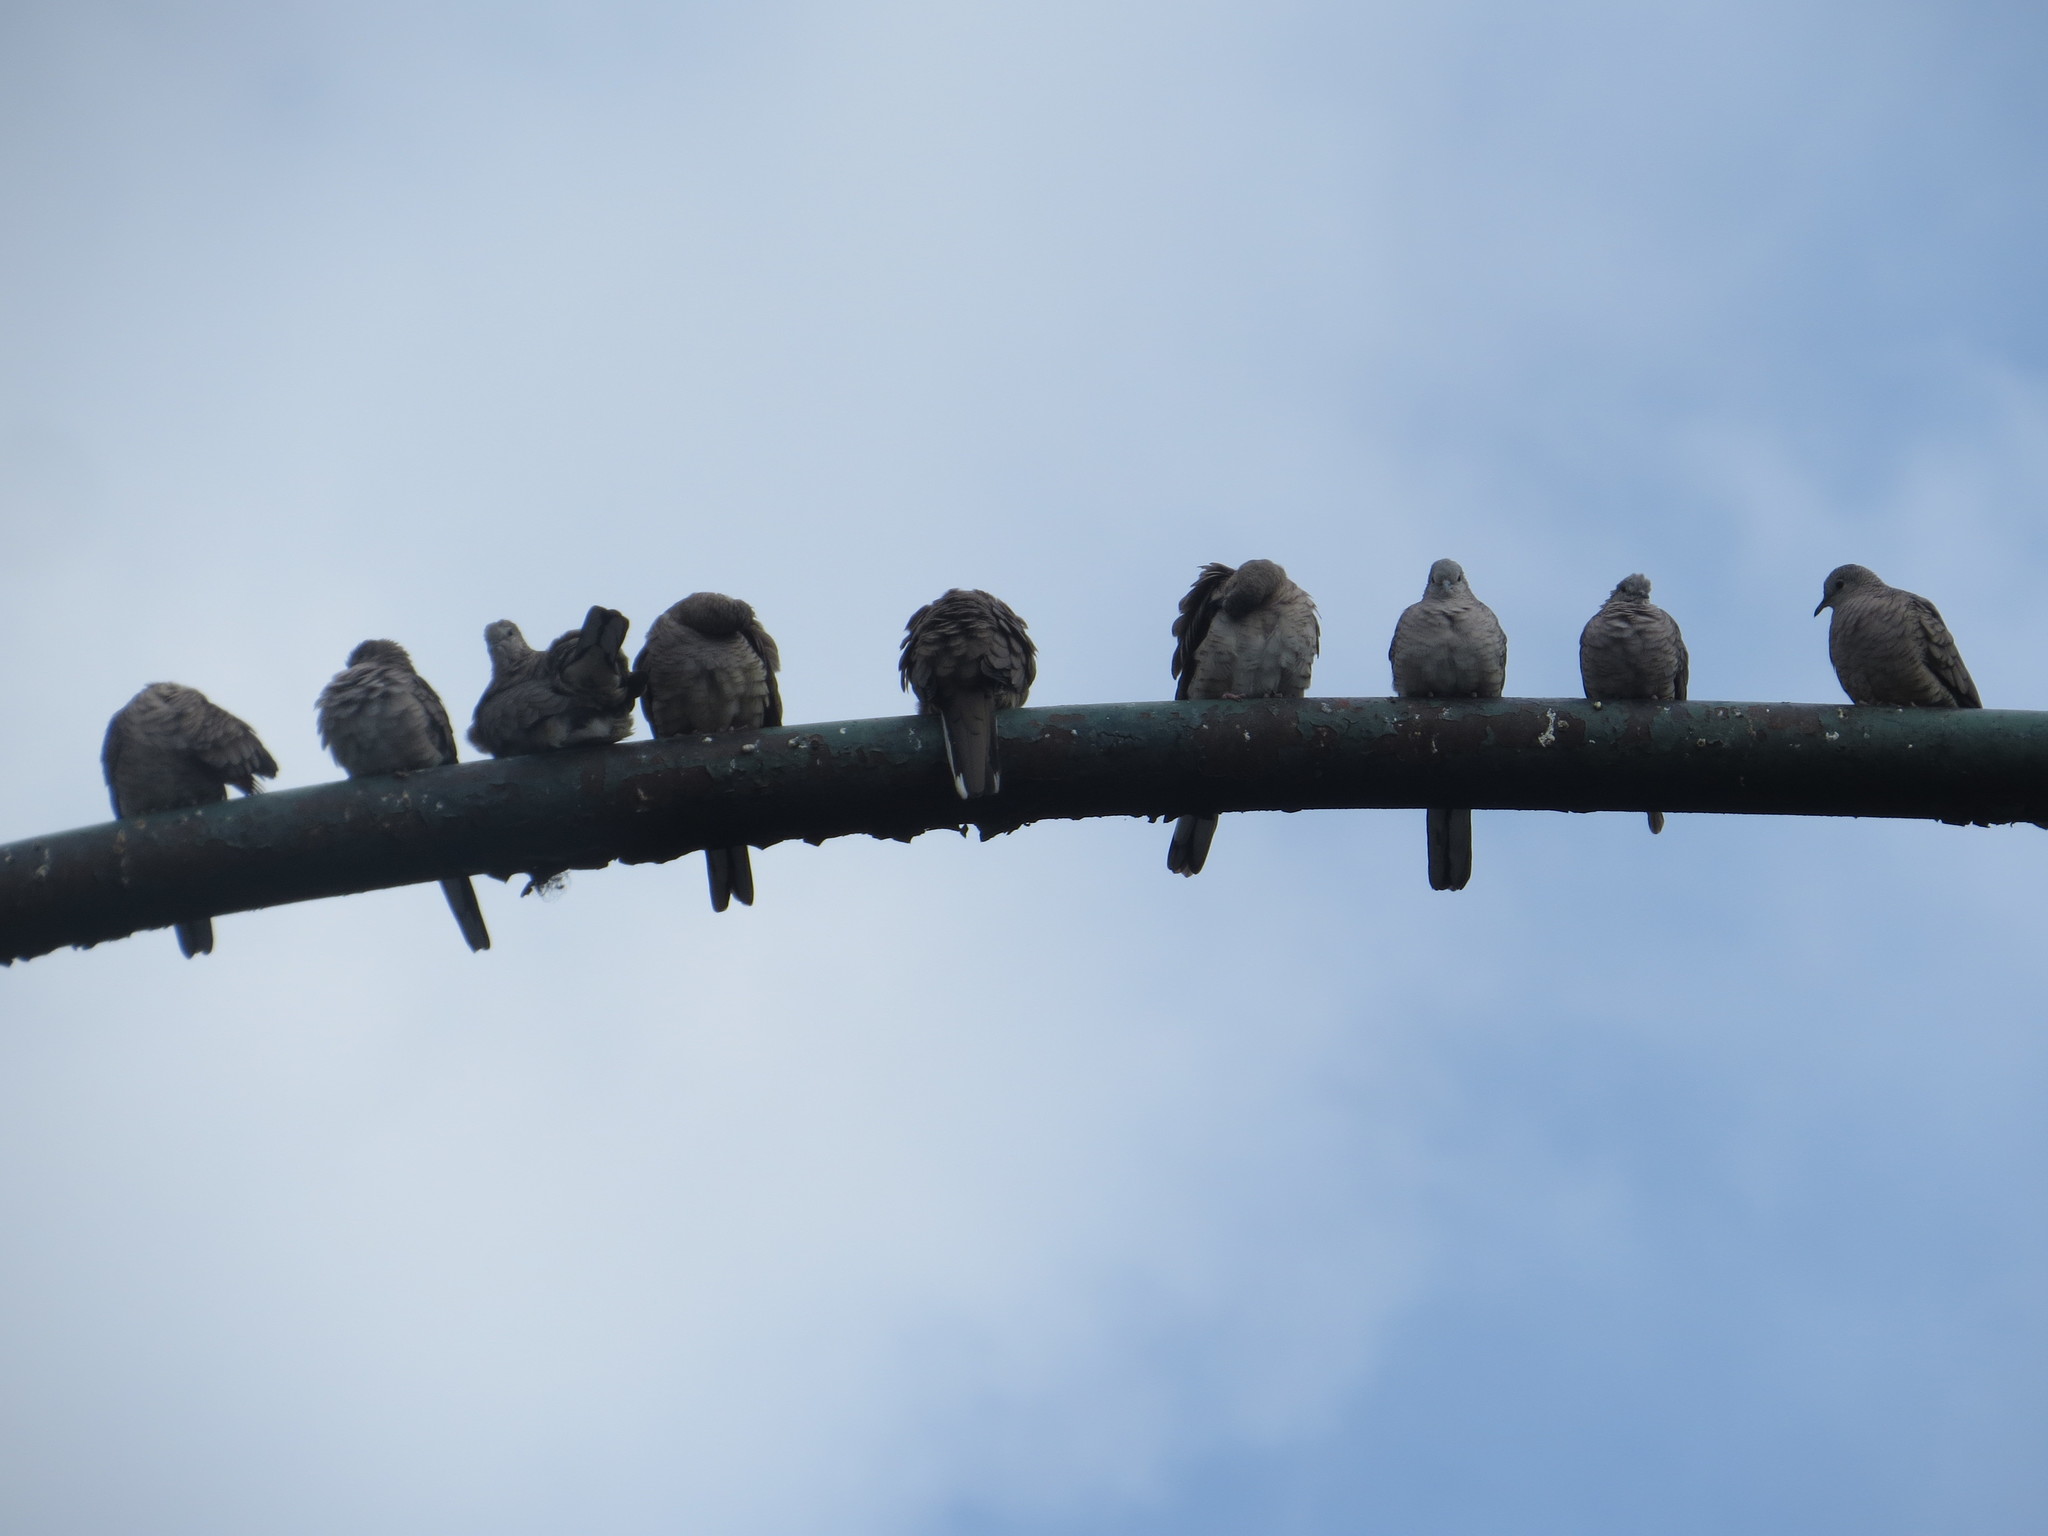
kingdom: Animalia
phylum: Chordata
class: Aves
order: Columbiformes
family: Columbidae
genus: Columbina
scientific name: Columbina inca
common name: Inca dove
